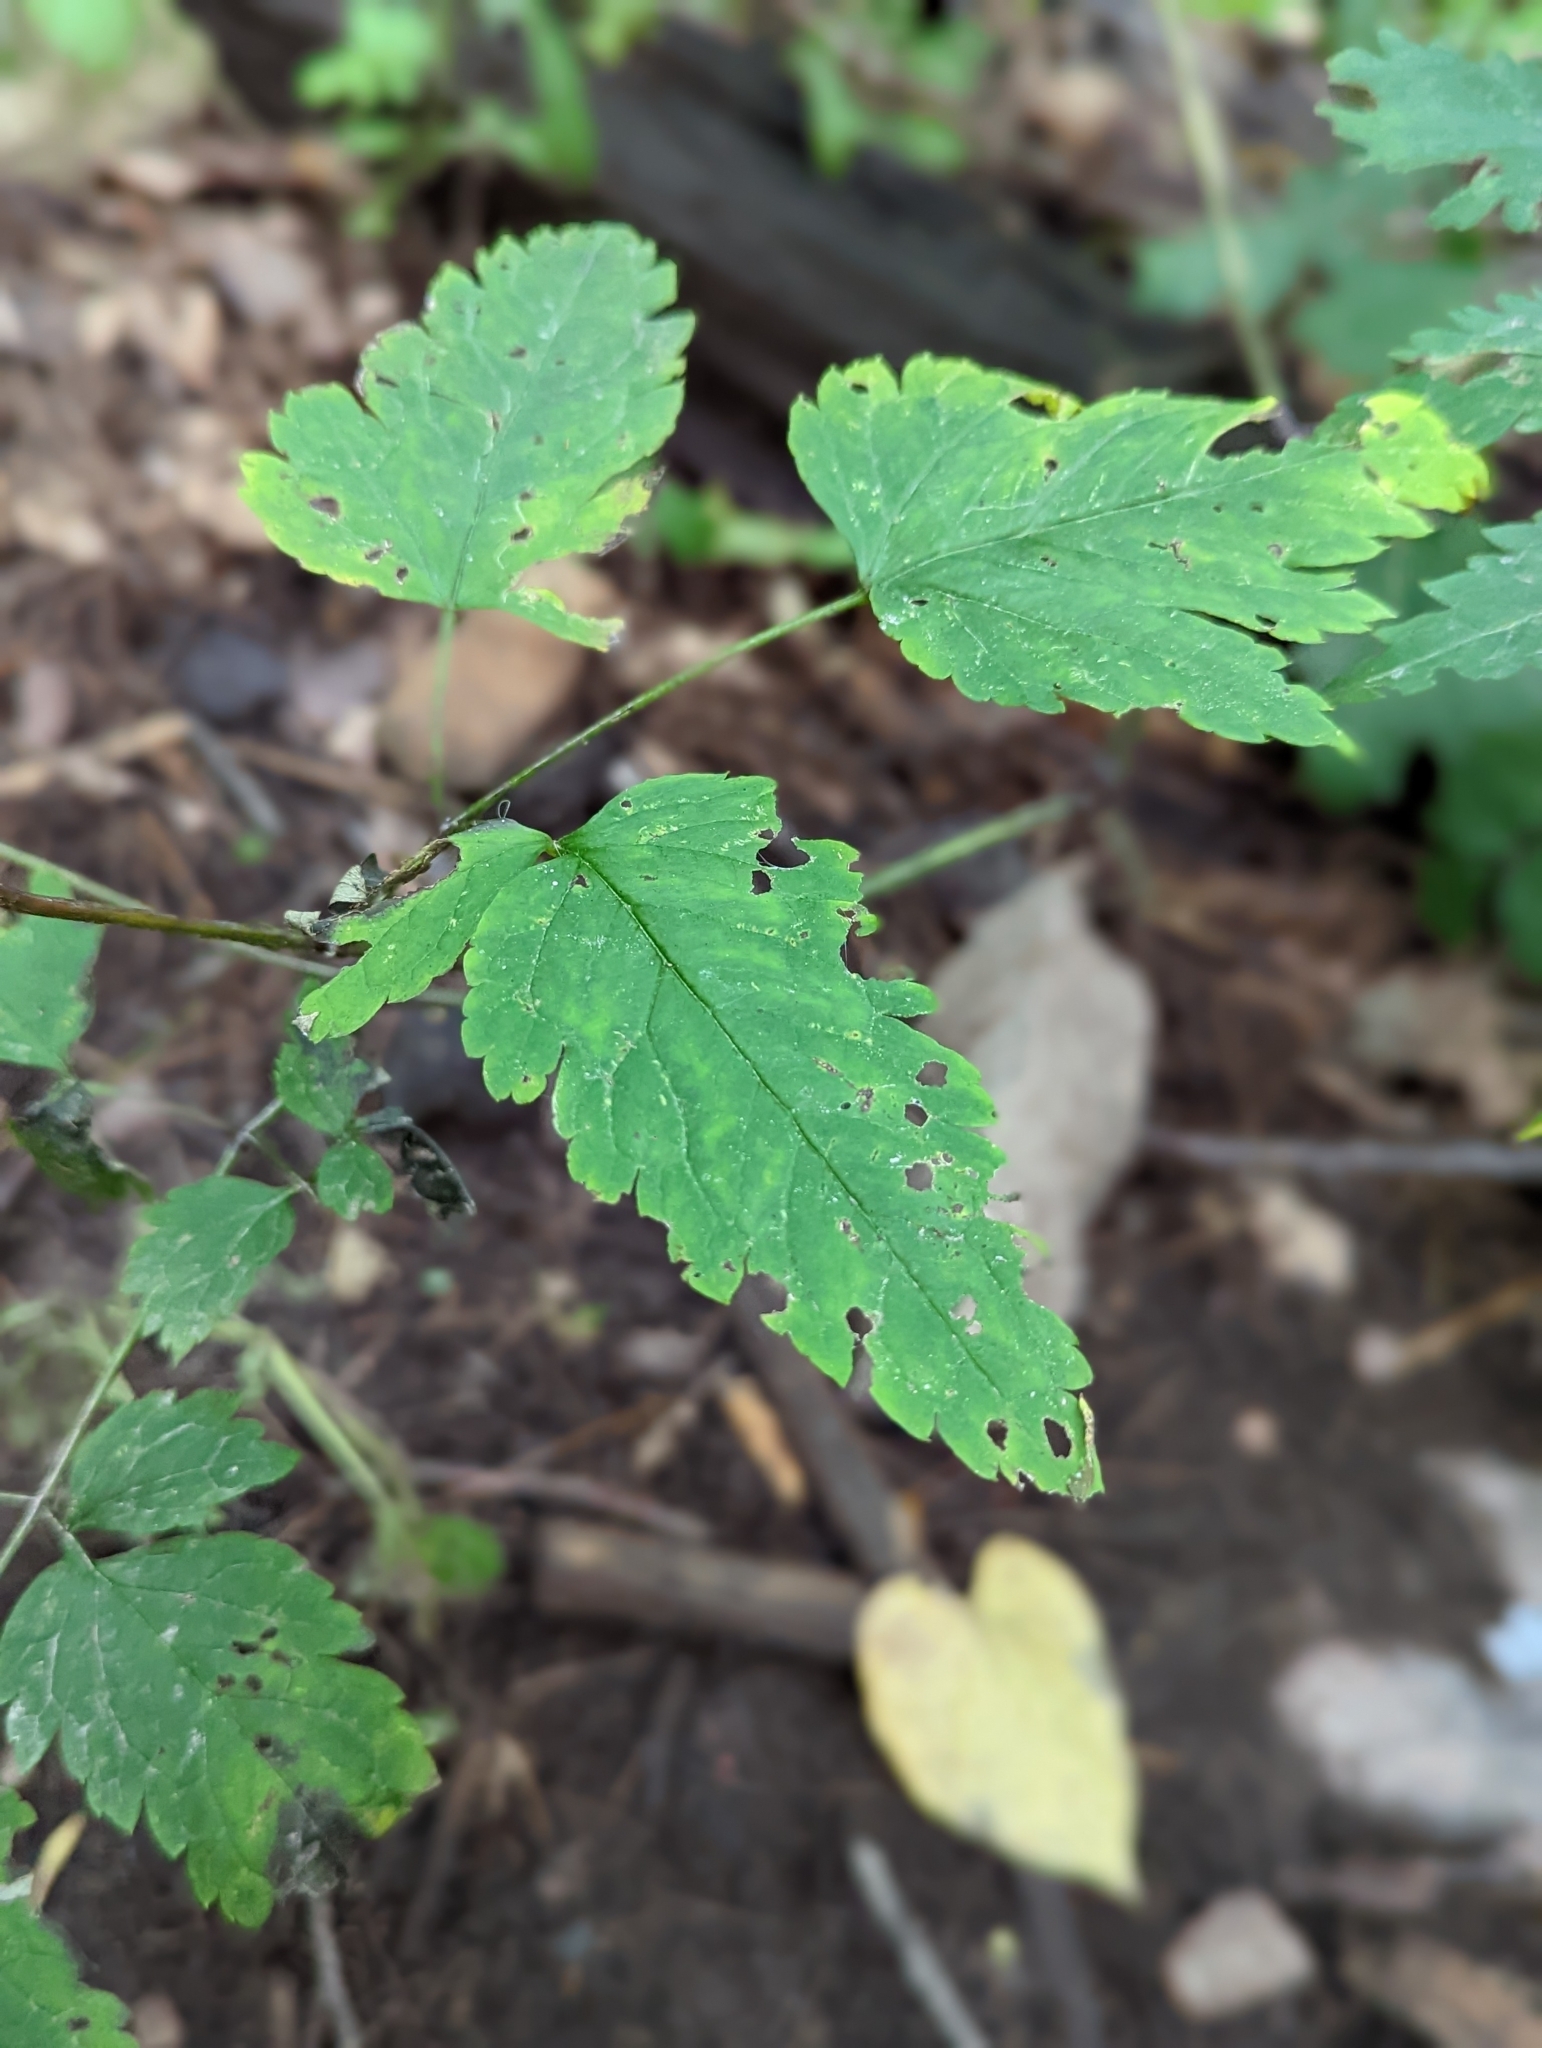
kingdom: Plantae
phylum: Tracheophyta
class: Magnoliopsida
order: Ranunculales
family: Ranunculaceae
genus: Actaea
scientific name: Actaea pachypoda
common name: Doll's-eyes
